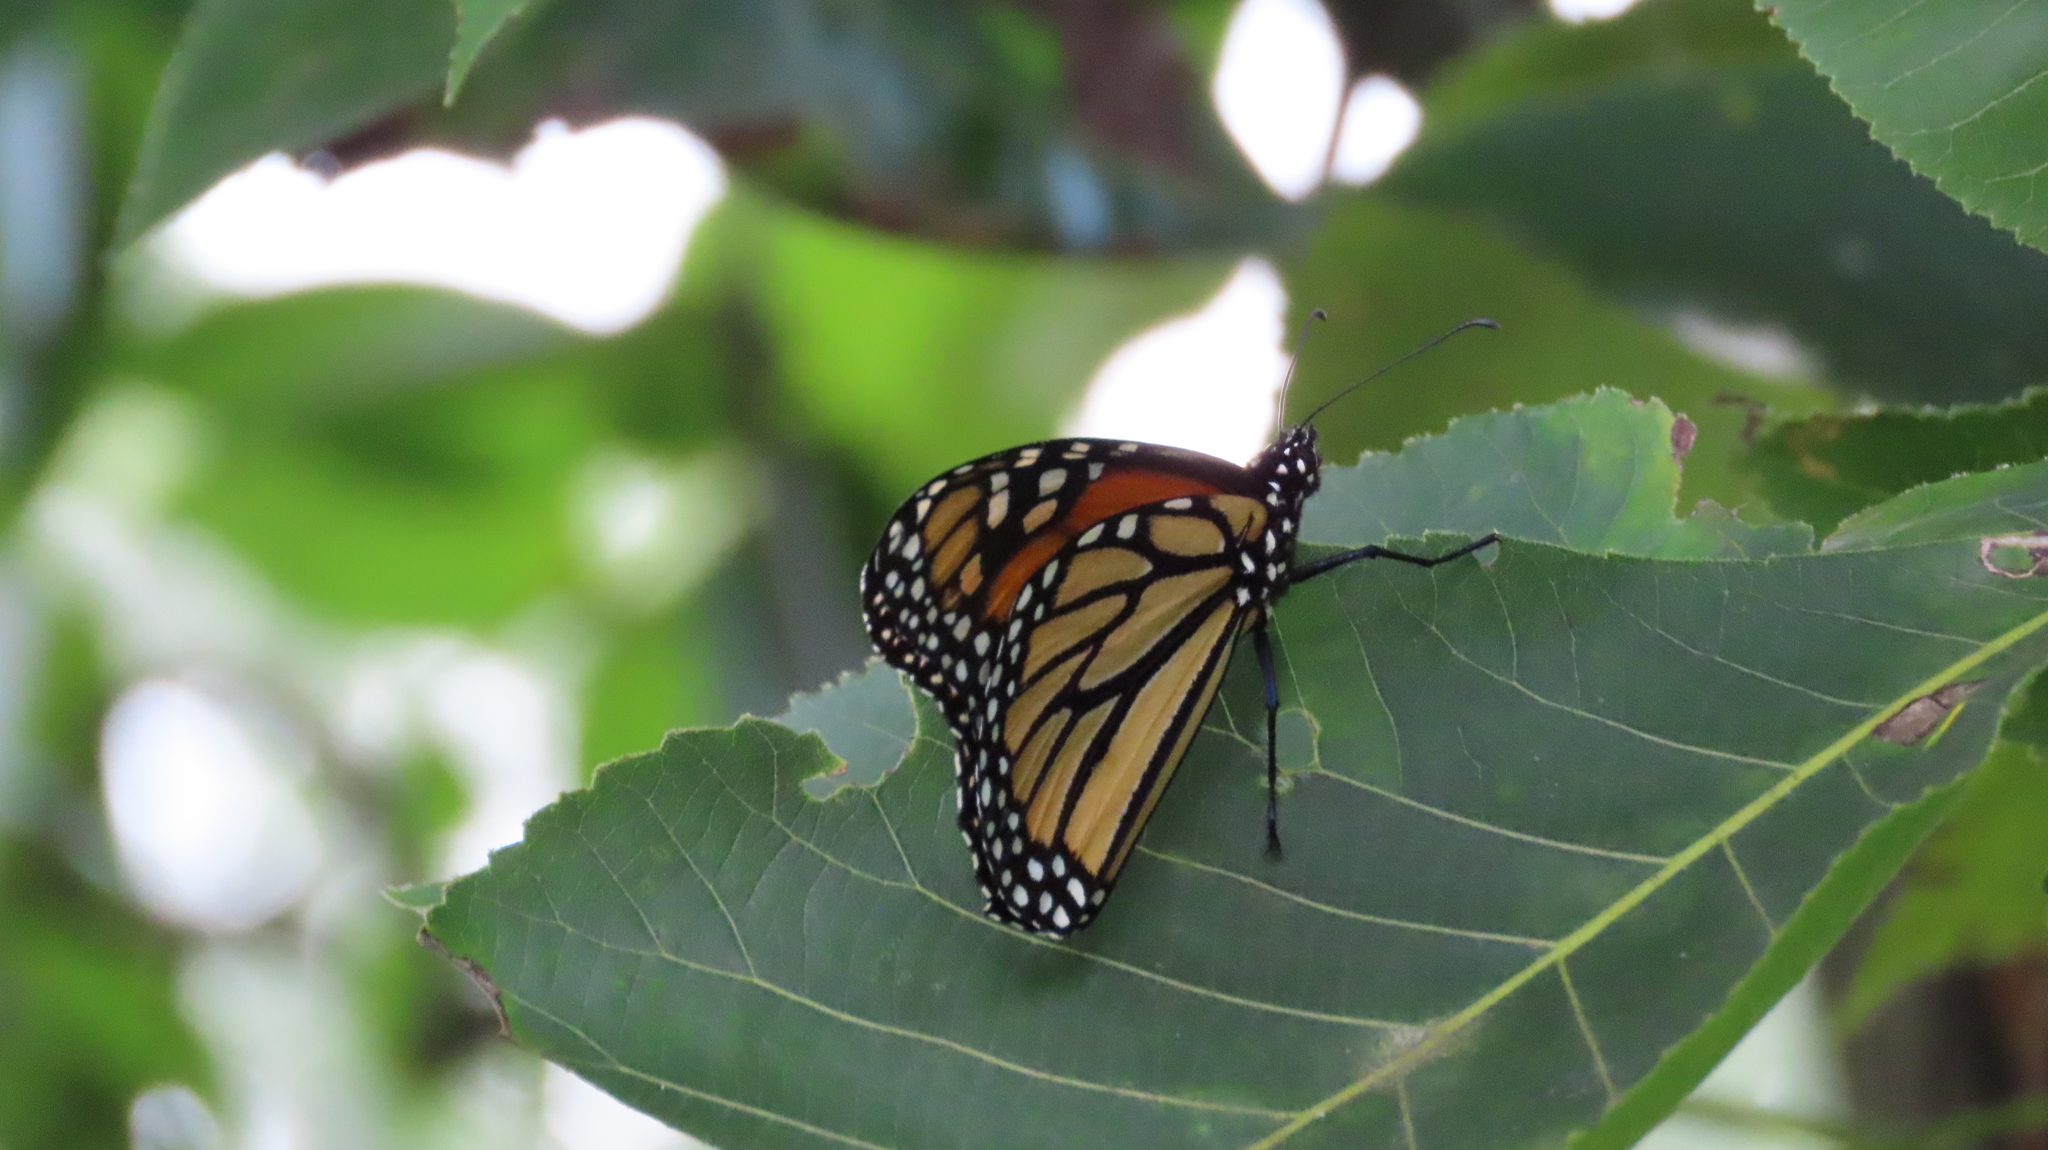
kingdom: Animalia
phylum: Arthropoda
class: Insecta
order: Lepidoptera
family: Nymphalidae
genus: Danaus
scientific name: Danaus plexippus
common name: Monarch
